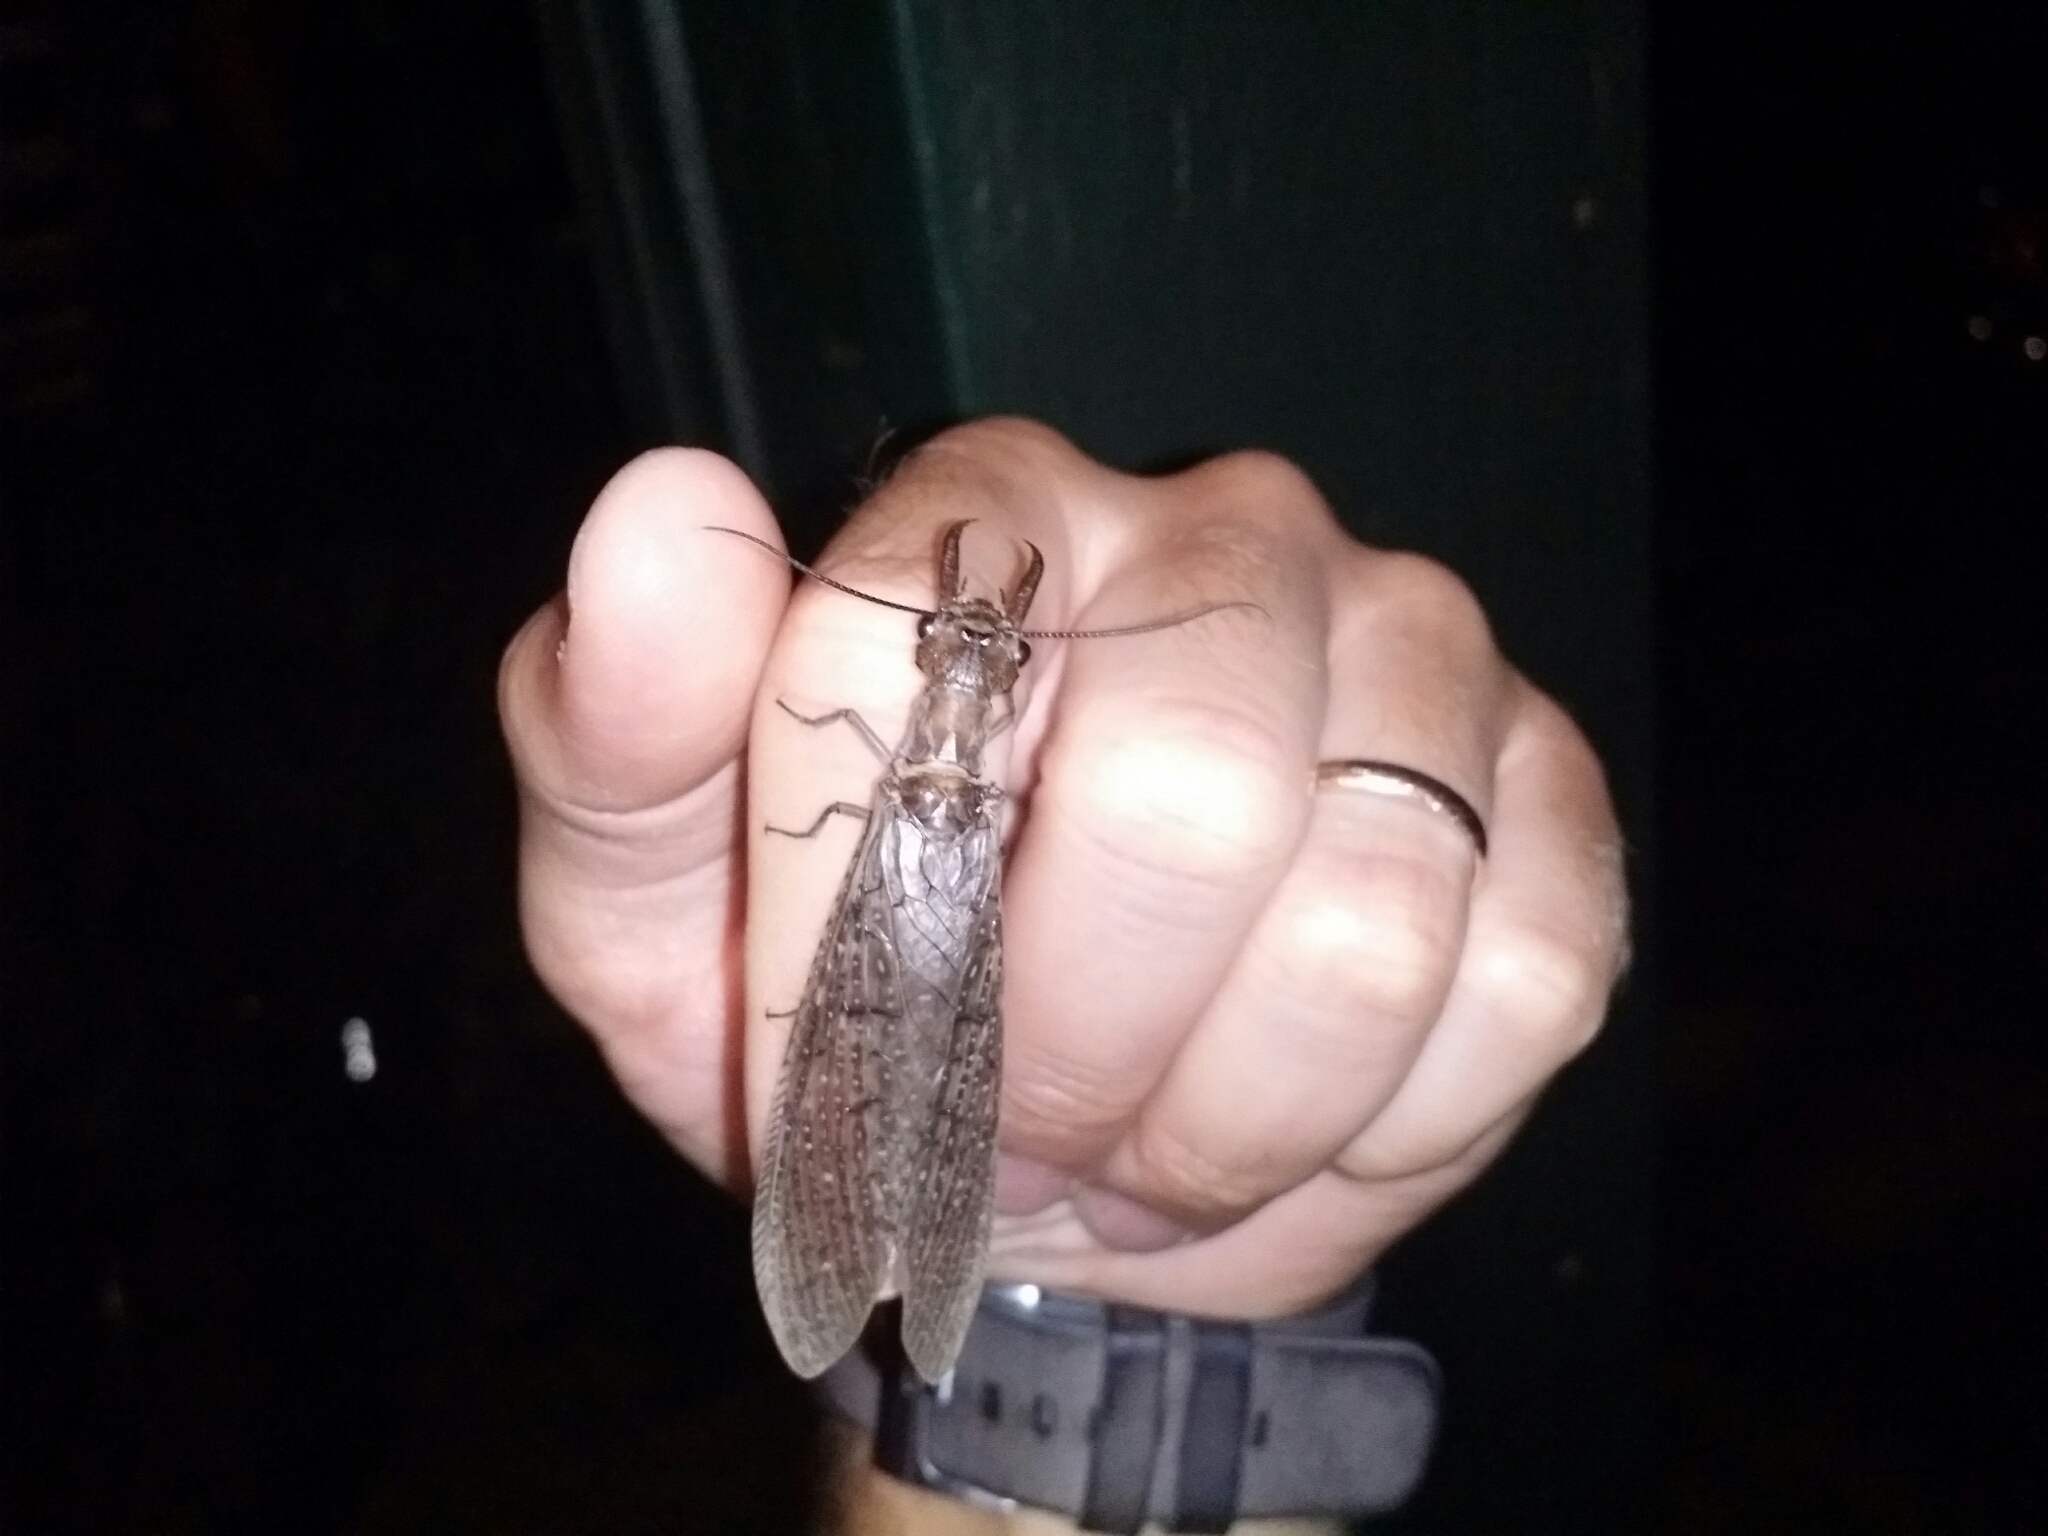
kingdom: Animalia
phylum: Arthropoda
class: Insecta
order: Megaloptera
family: Corydalidae
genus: Corydalus
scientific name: Corydalus texanus
